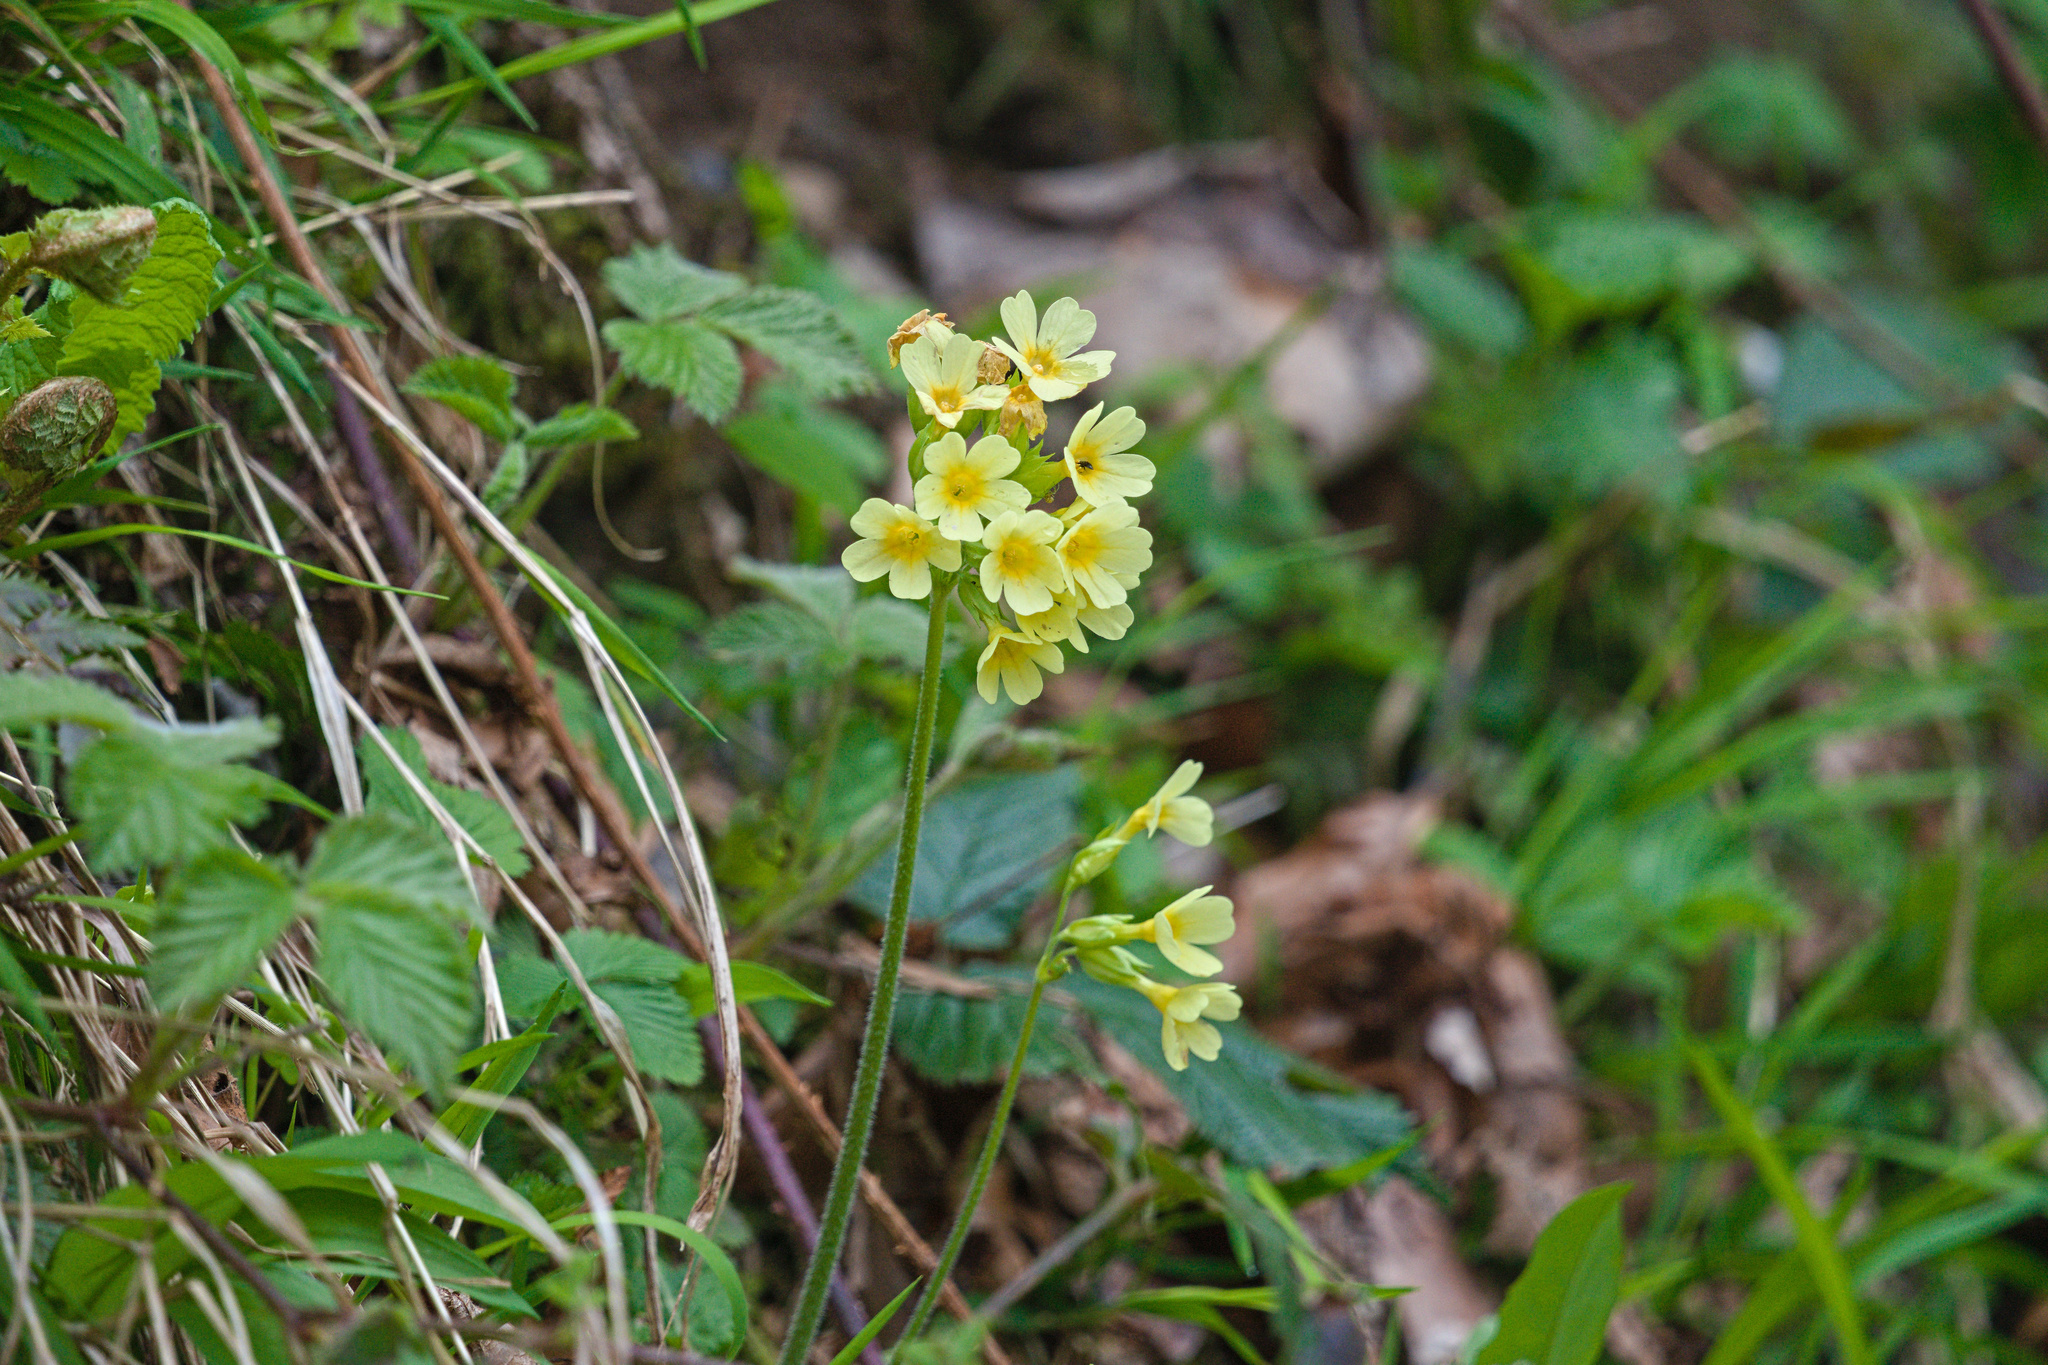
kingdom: Plantae
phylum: Tracheophyta
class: Magnoliopsida
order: Ericales
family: Primulaceae
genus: Primula
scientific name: Primula elatior
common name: Oxlip
